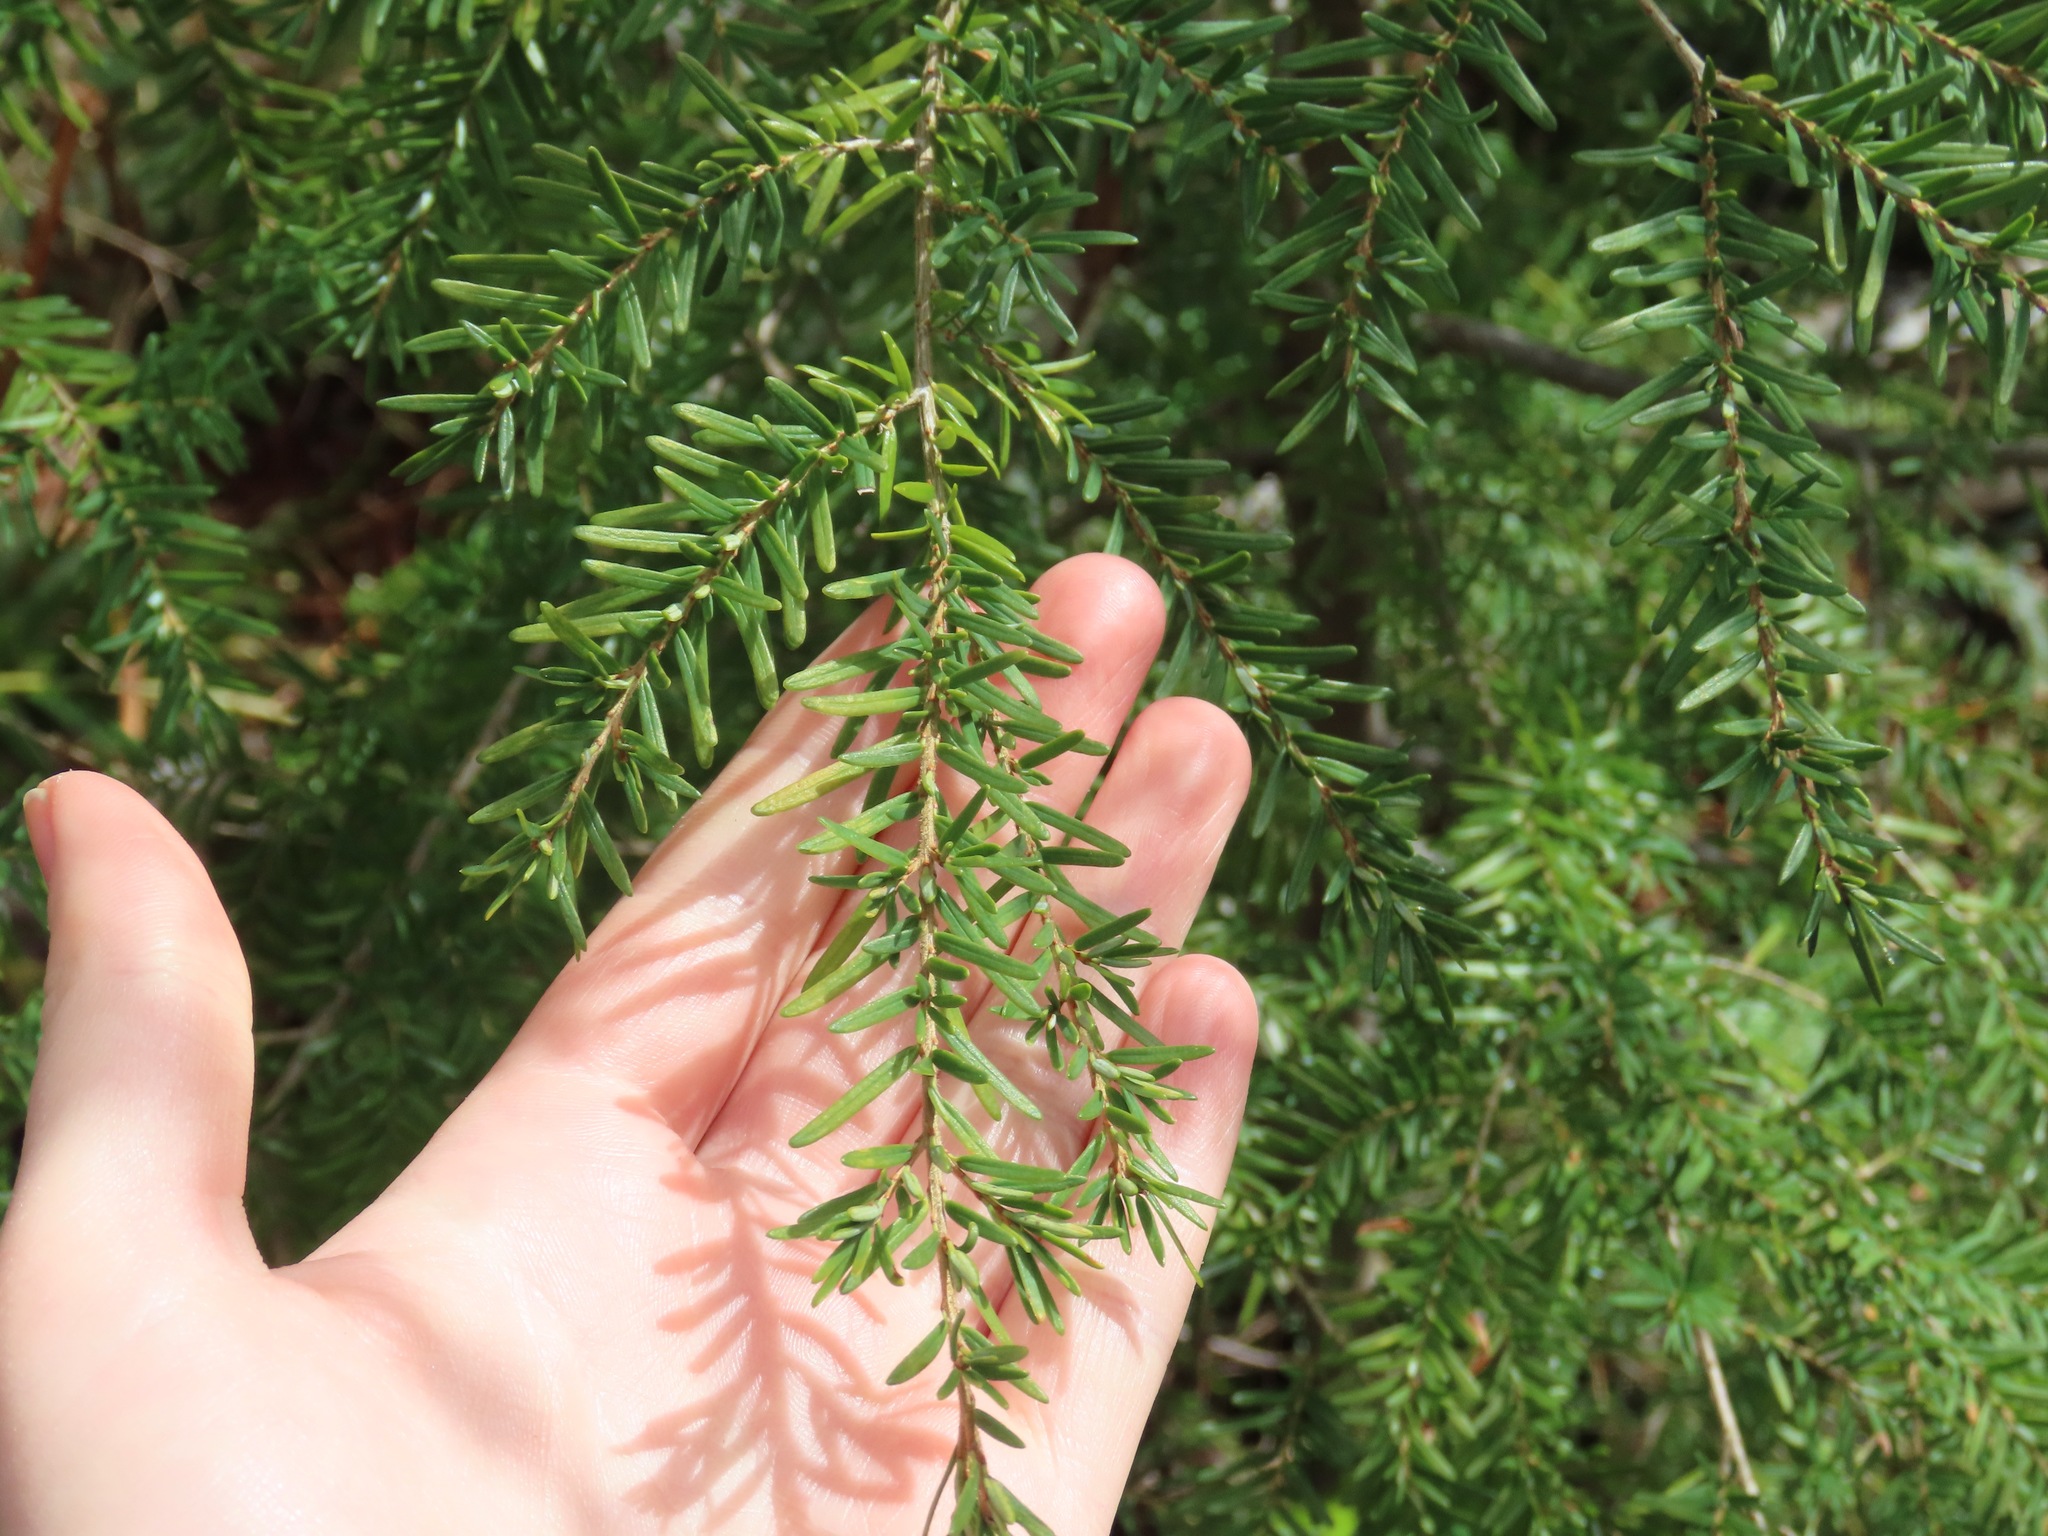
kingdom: Plantae
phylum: Tracheophyta
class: Pinopsida
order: Pinales
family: Pinaceae
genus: Tsuga
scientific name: Tsuga heterophylla
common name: Western hemlock
